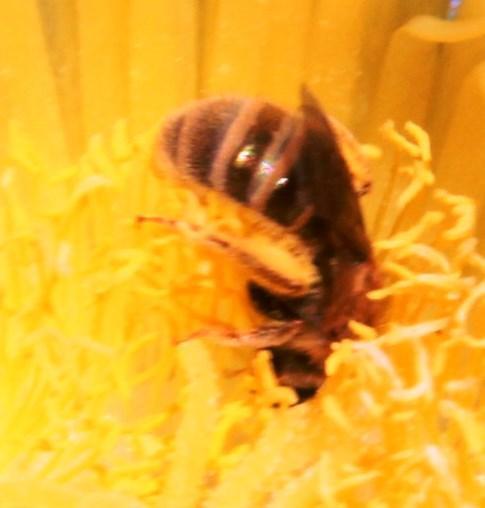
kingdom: Animalia
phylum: Arthropoda
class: Insecta
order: Hymenoptera
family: Halictidae
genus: Halictus
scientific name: Halictus jucundus
